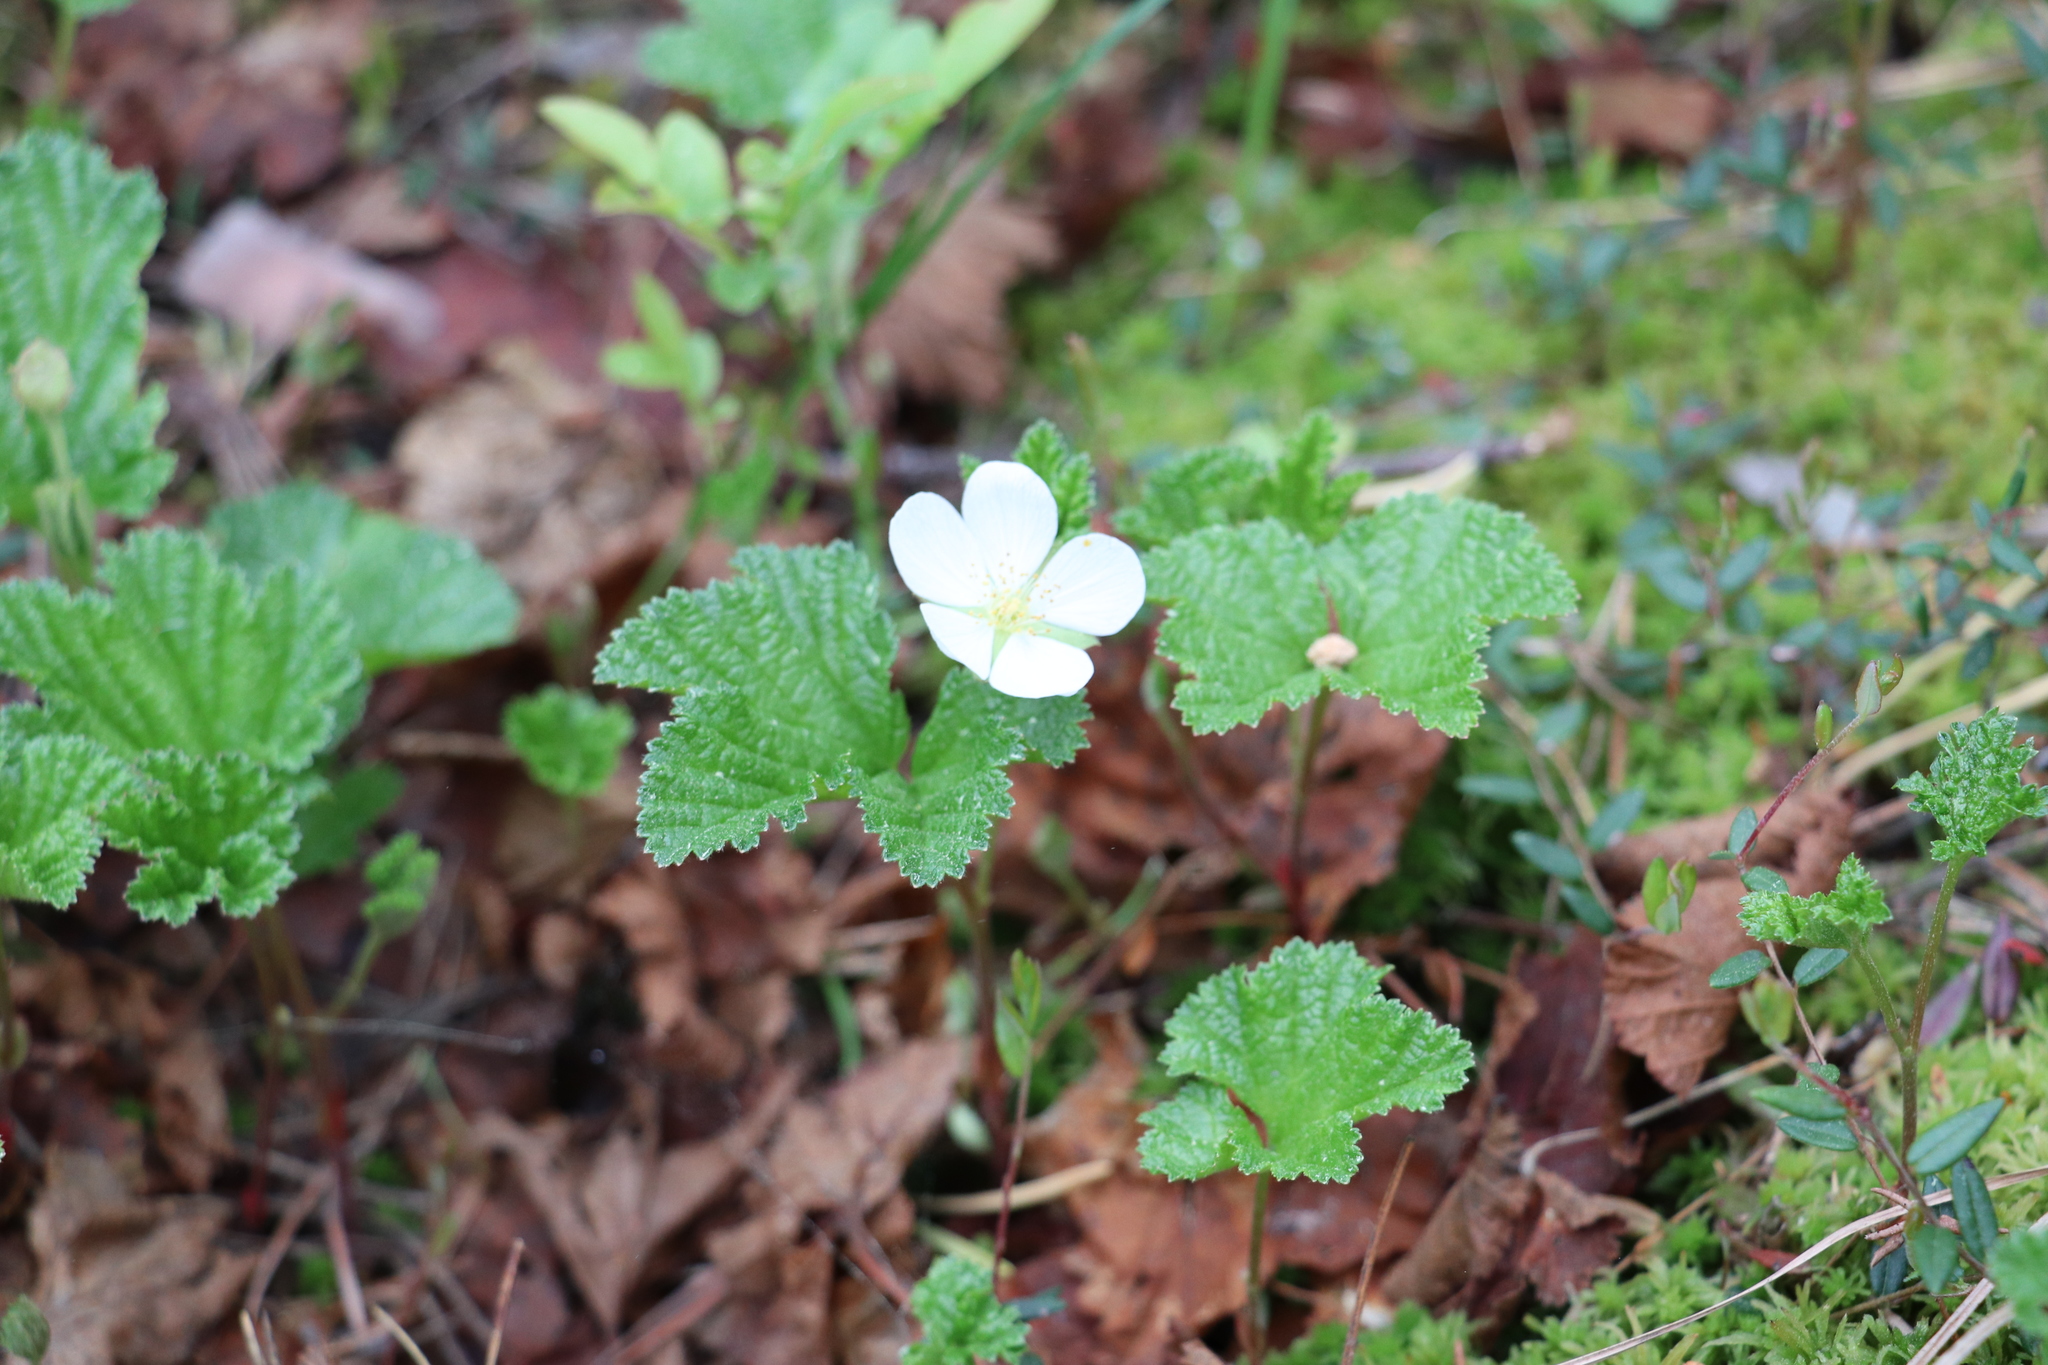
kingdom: Plantae
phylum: Tracheophyta
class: Magnoliopsida
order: Rosales
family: Rosaceae
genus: Rubus
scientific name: Rubus chamaemorus
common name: Cloudberry
